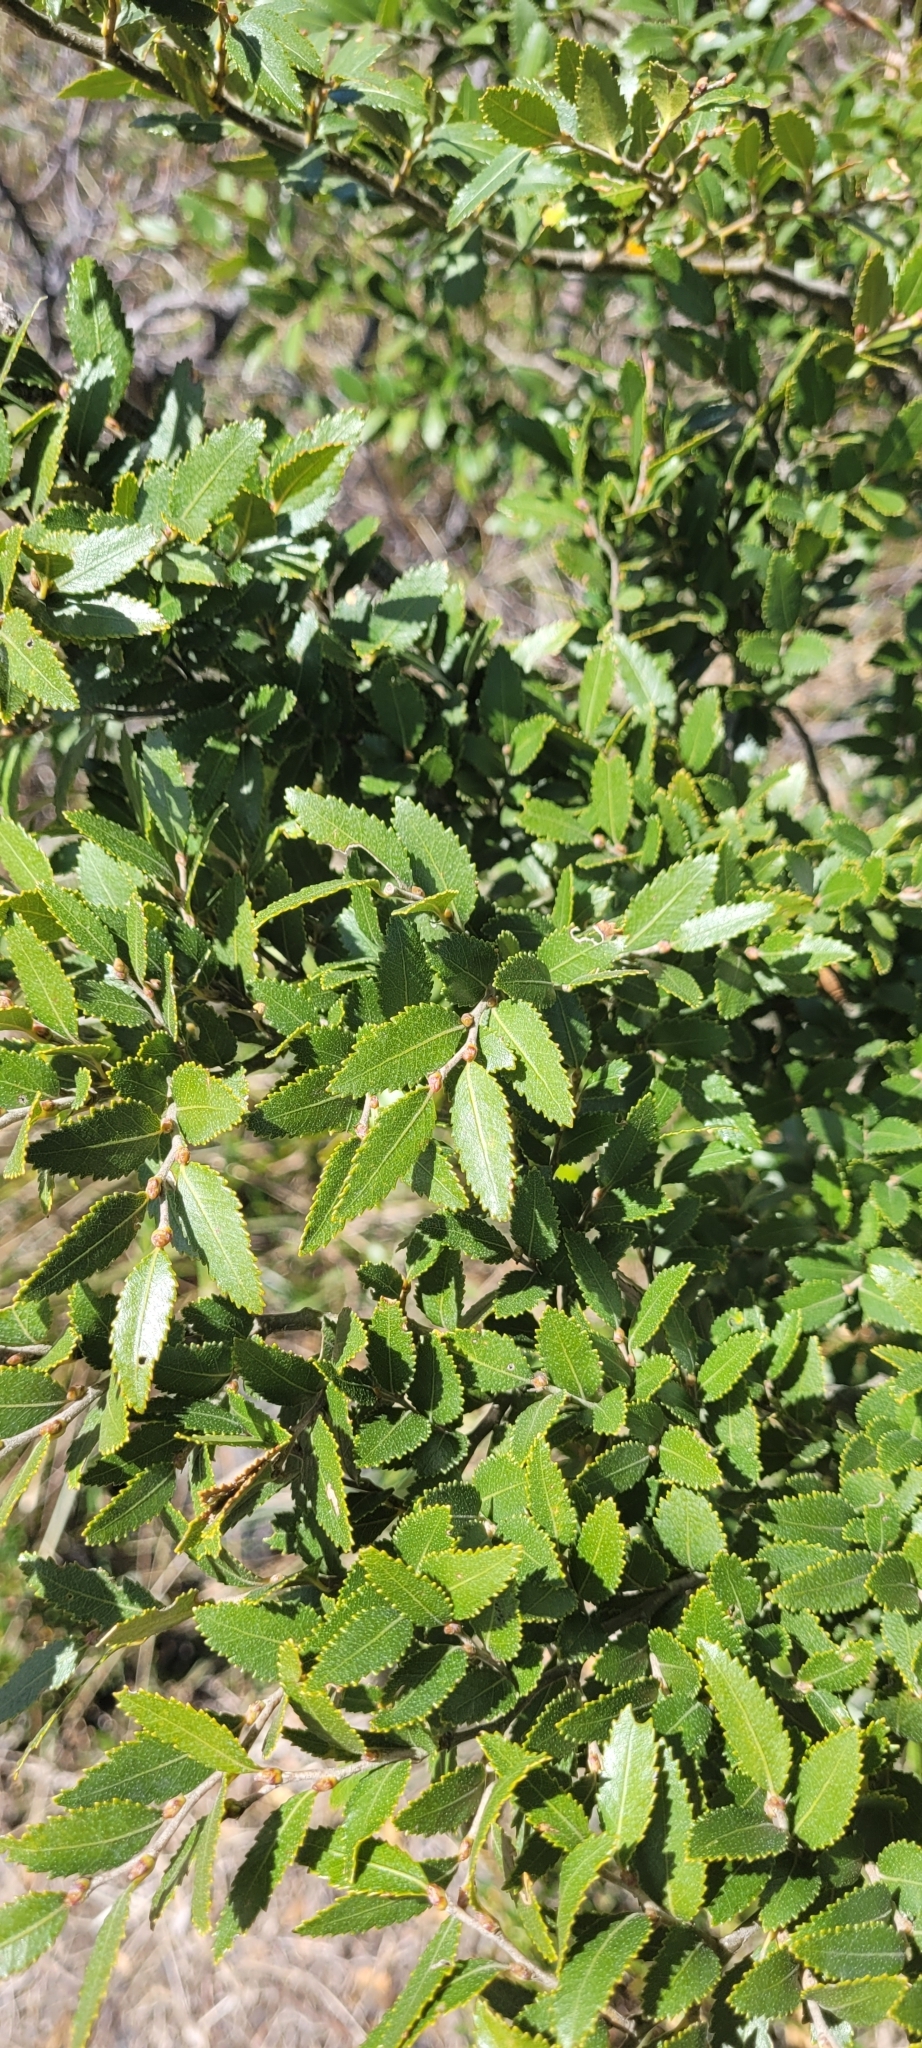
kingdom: Plantae
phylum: Tracheophyta
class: Magnoliopsida
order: Fagales
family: Nothofagaceae
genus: Nothofagus
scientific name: Nothofagus dombeyi
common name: Coigue
